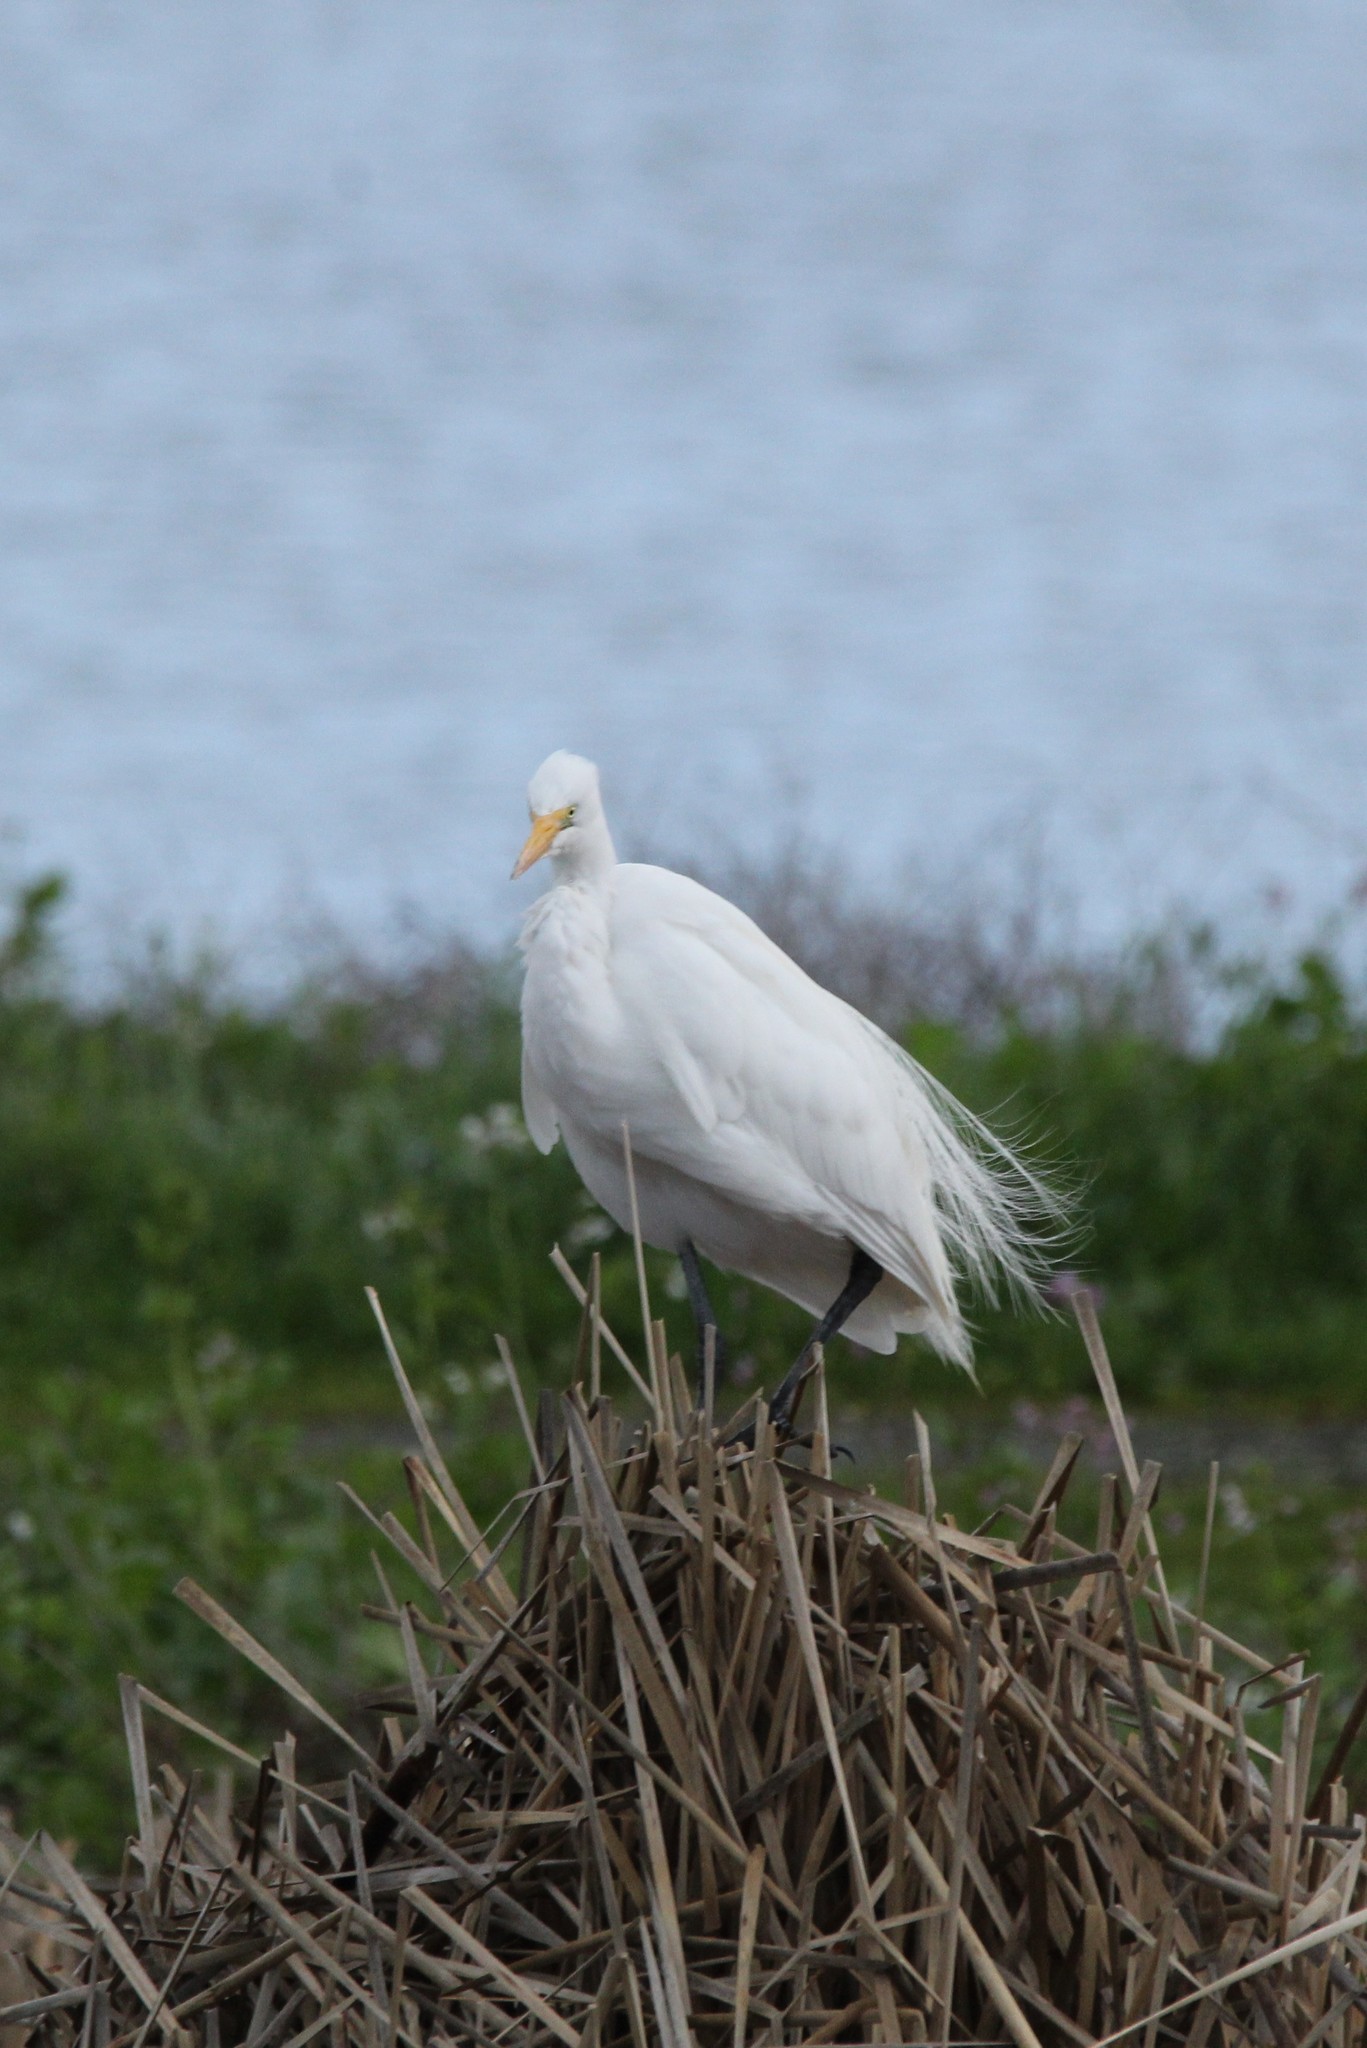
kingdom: Animalia
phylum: Chordata
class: Aves
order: Pelecaniformes
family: Ardeidae
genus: Ardea
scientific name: Ardea alba
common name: Great egret
